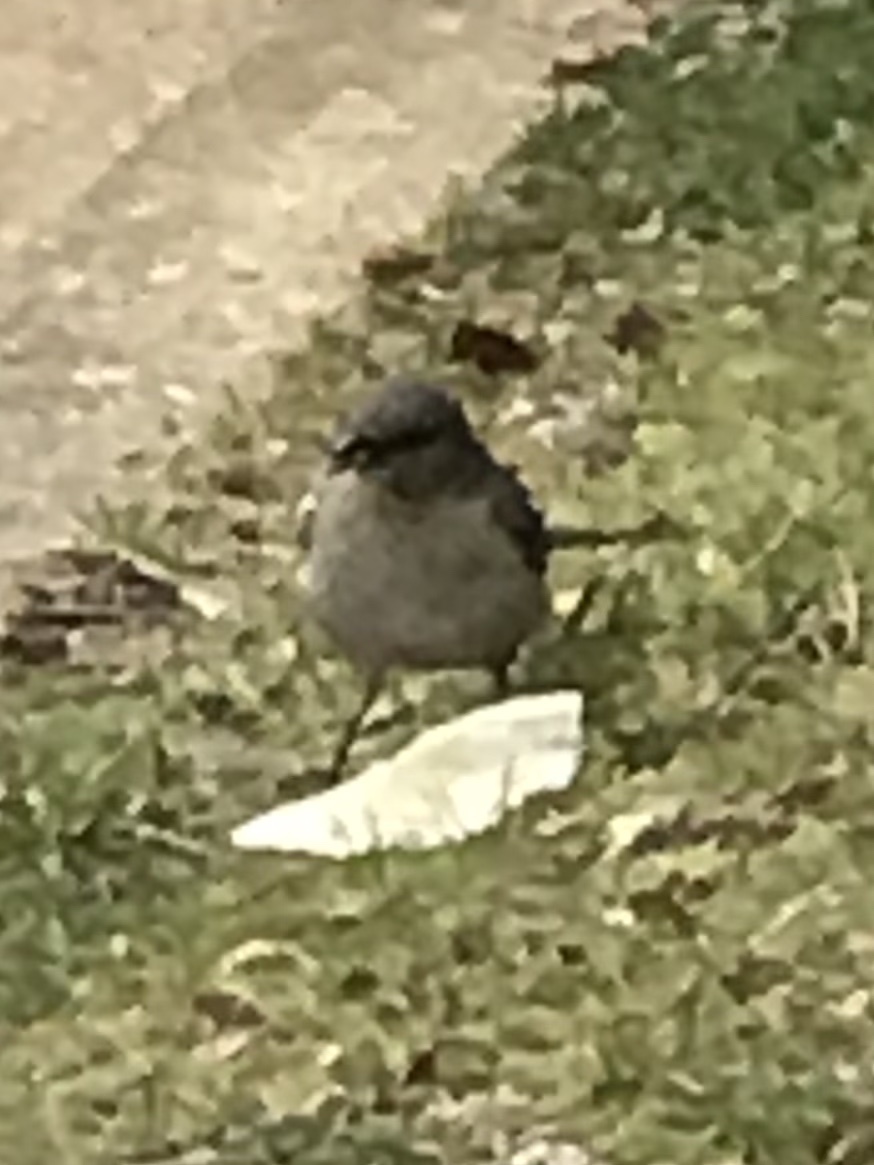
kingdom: Animalia
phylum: Chordata
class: Aves
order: Passeriformes
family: Mimidae
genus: Mimus
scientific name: Mimus polyglottos
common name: Northern mockingbird
